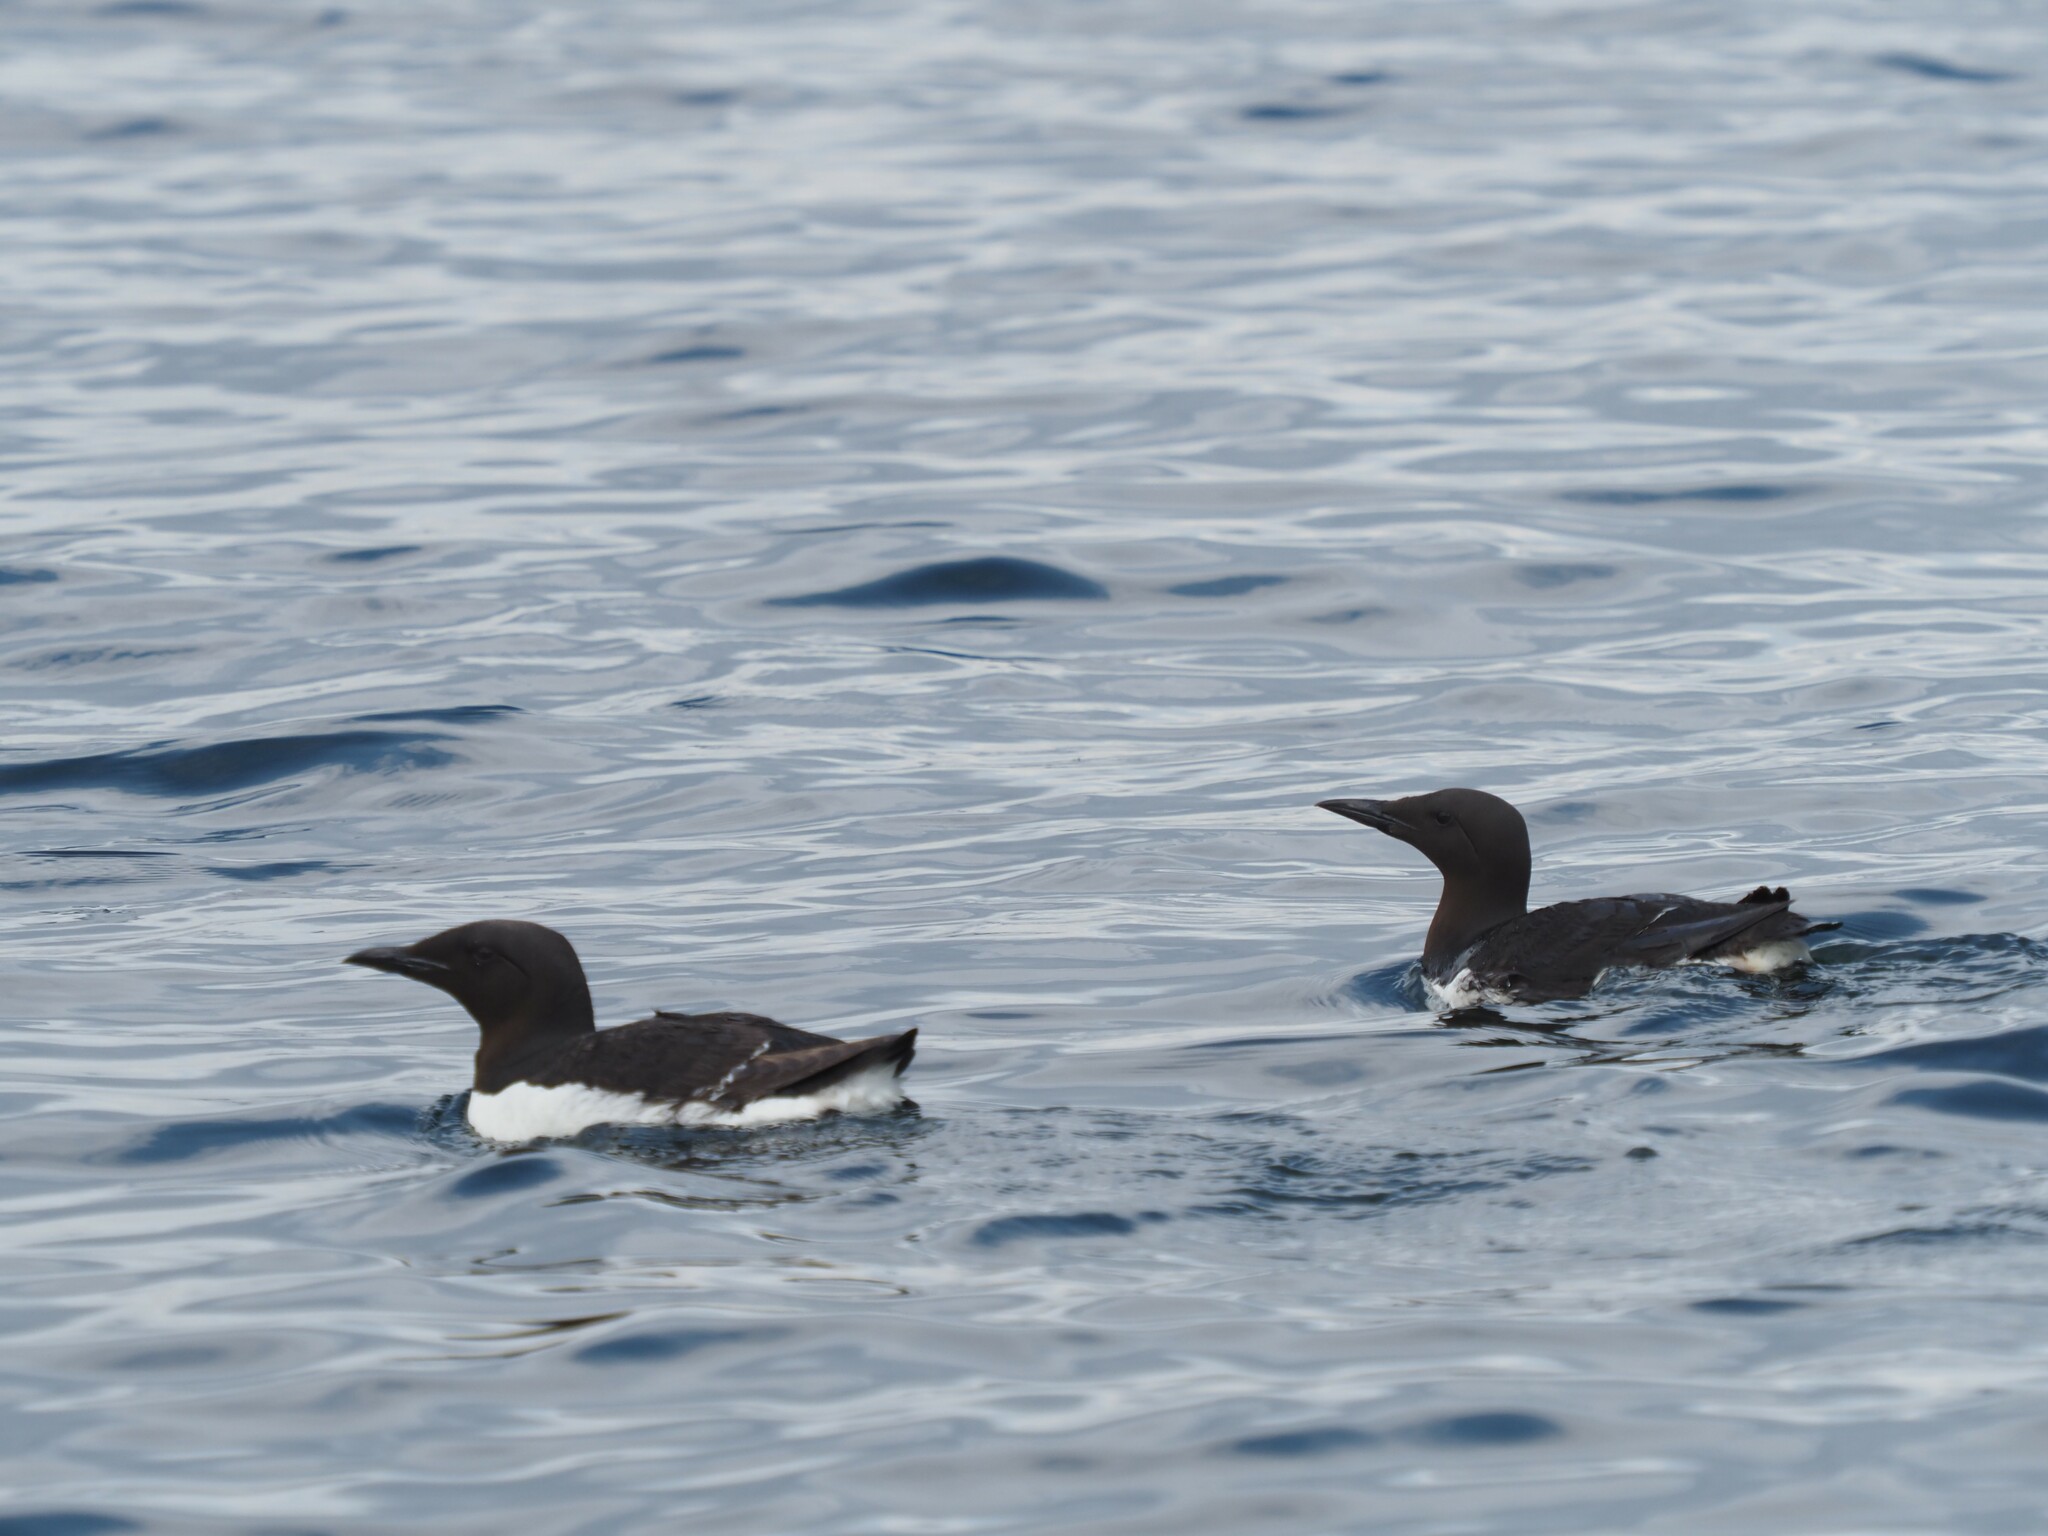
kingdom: Animalia
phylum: Chordata
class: Aves
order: Charadriiformes
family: Alcidae
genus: Uria
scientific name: Uria aalge
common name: Common murre
